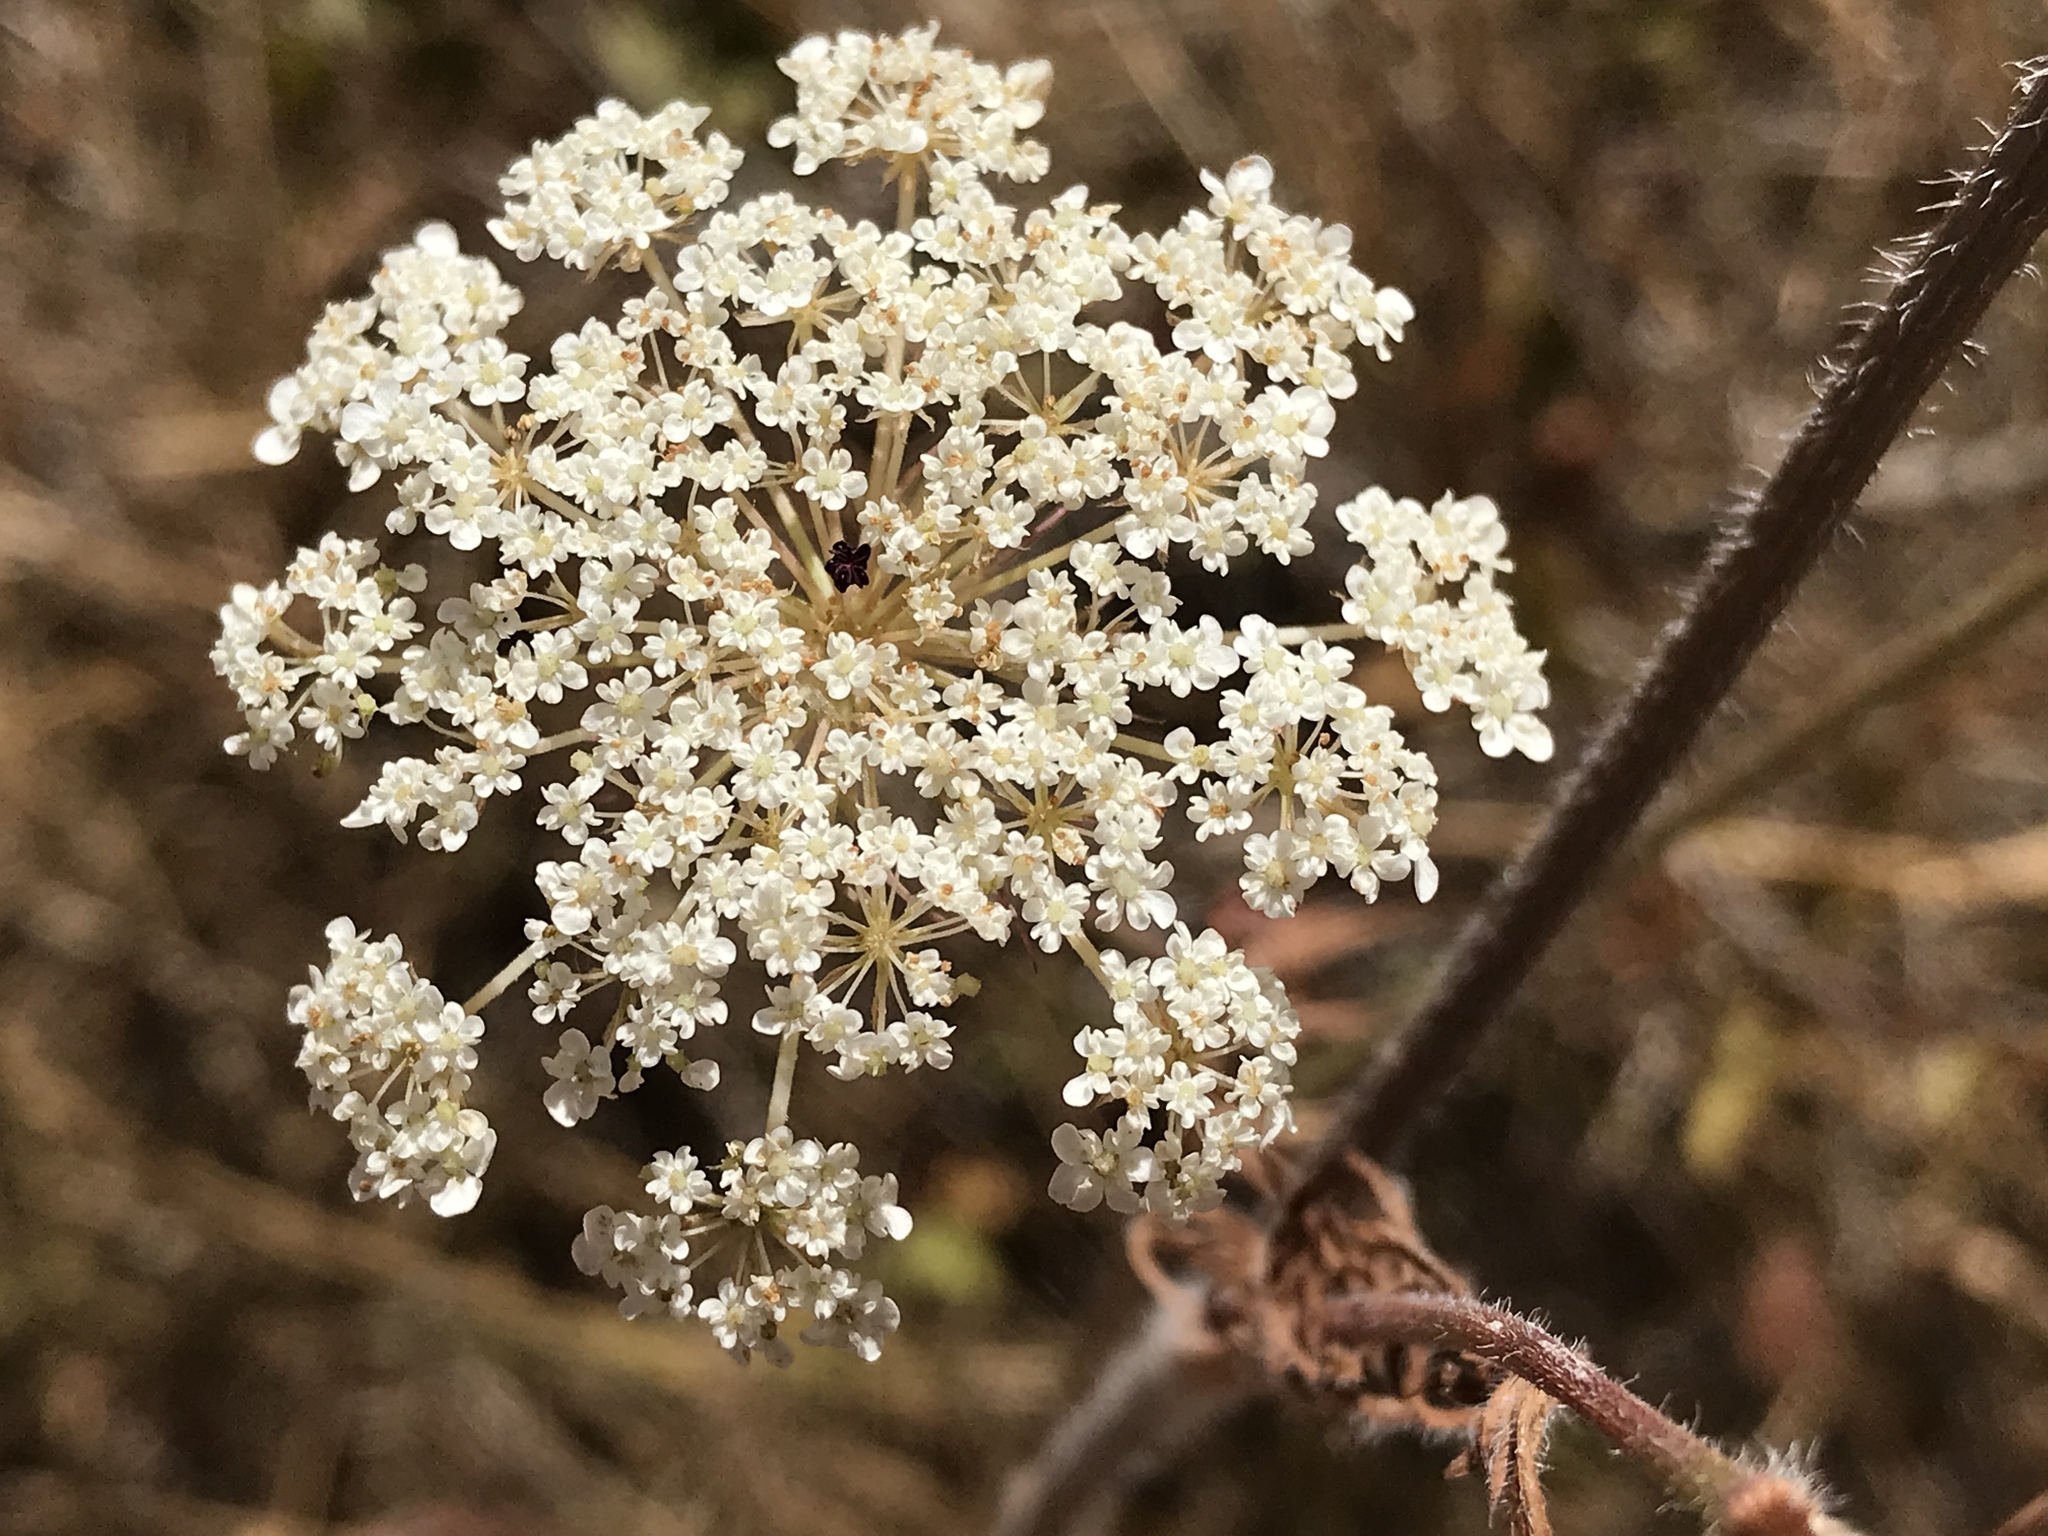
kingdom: Plantae
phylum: Tracheophyta
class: Magnoliopsida
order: Apiales
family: Apiaceae
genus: Daucus
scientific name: Daucus carota
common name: Wild carrot
